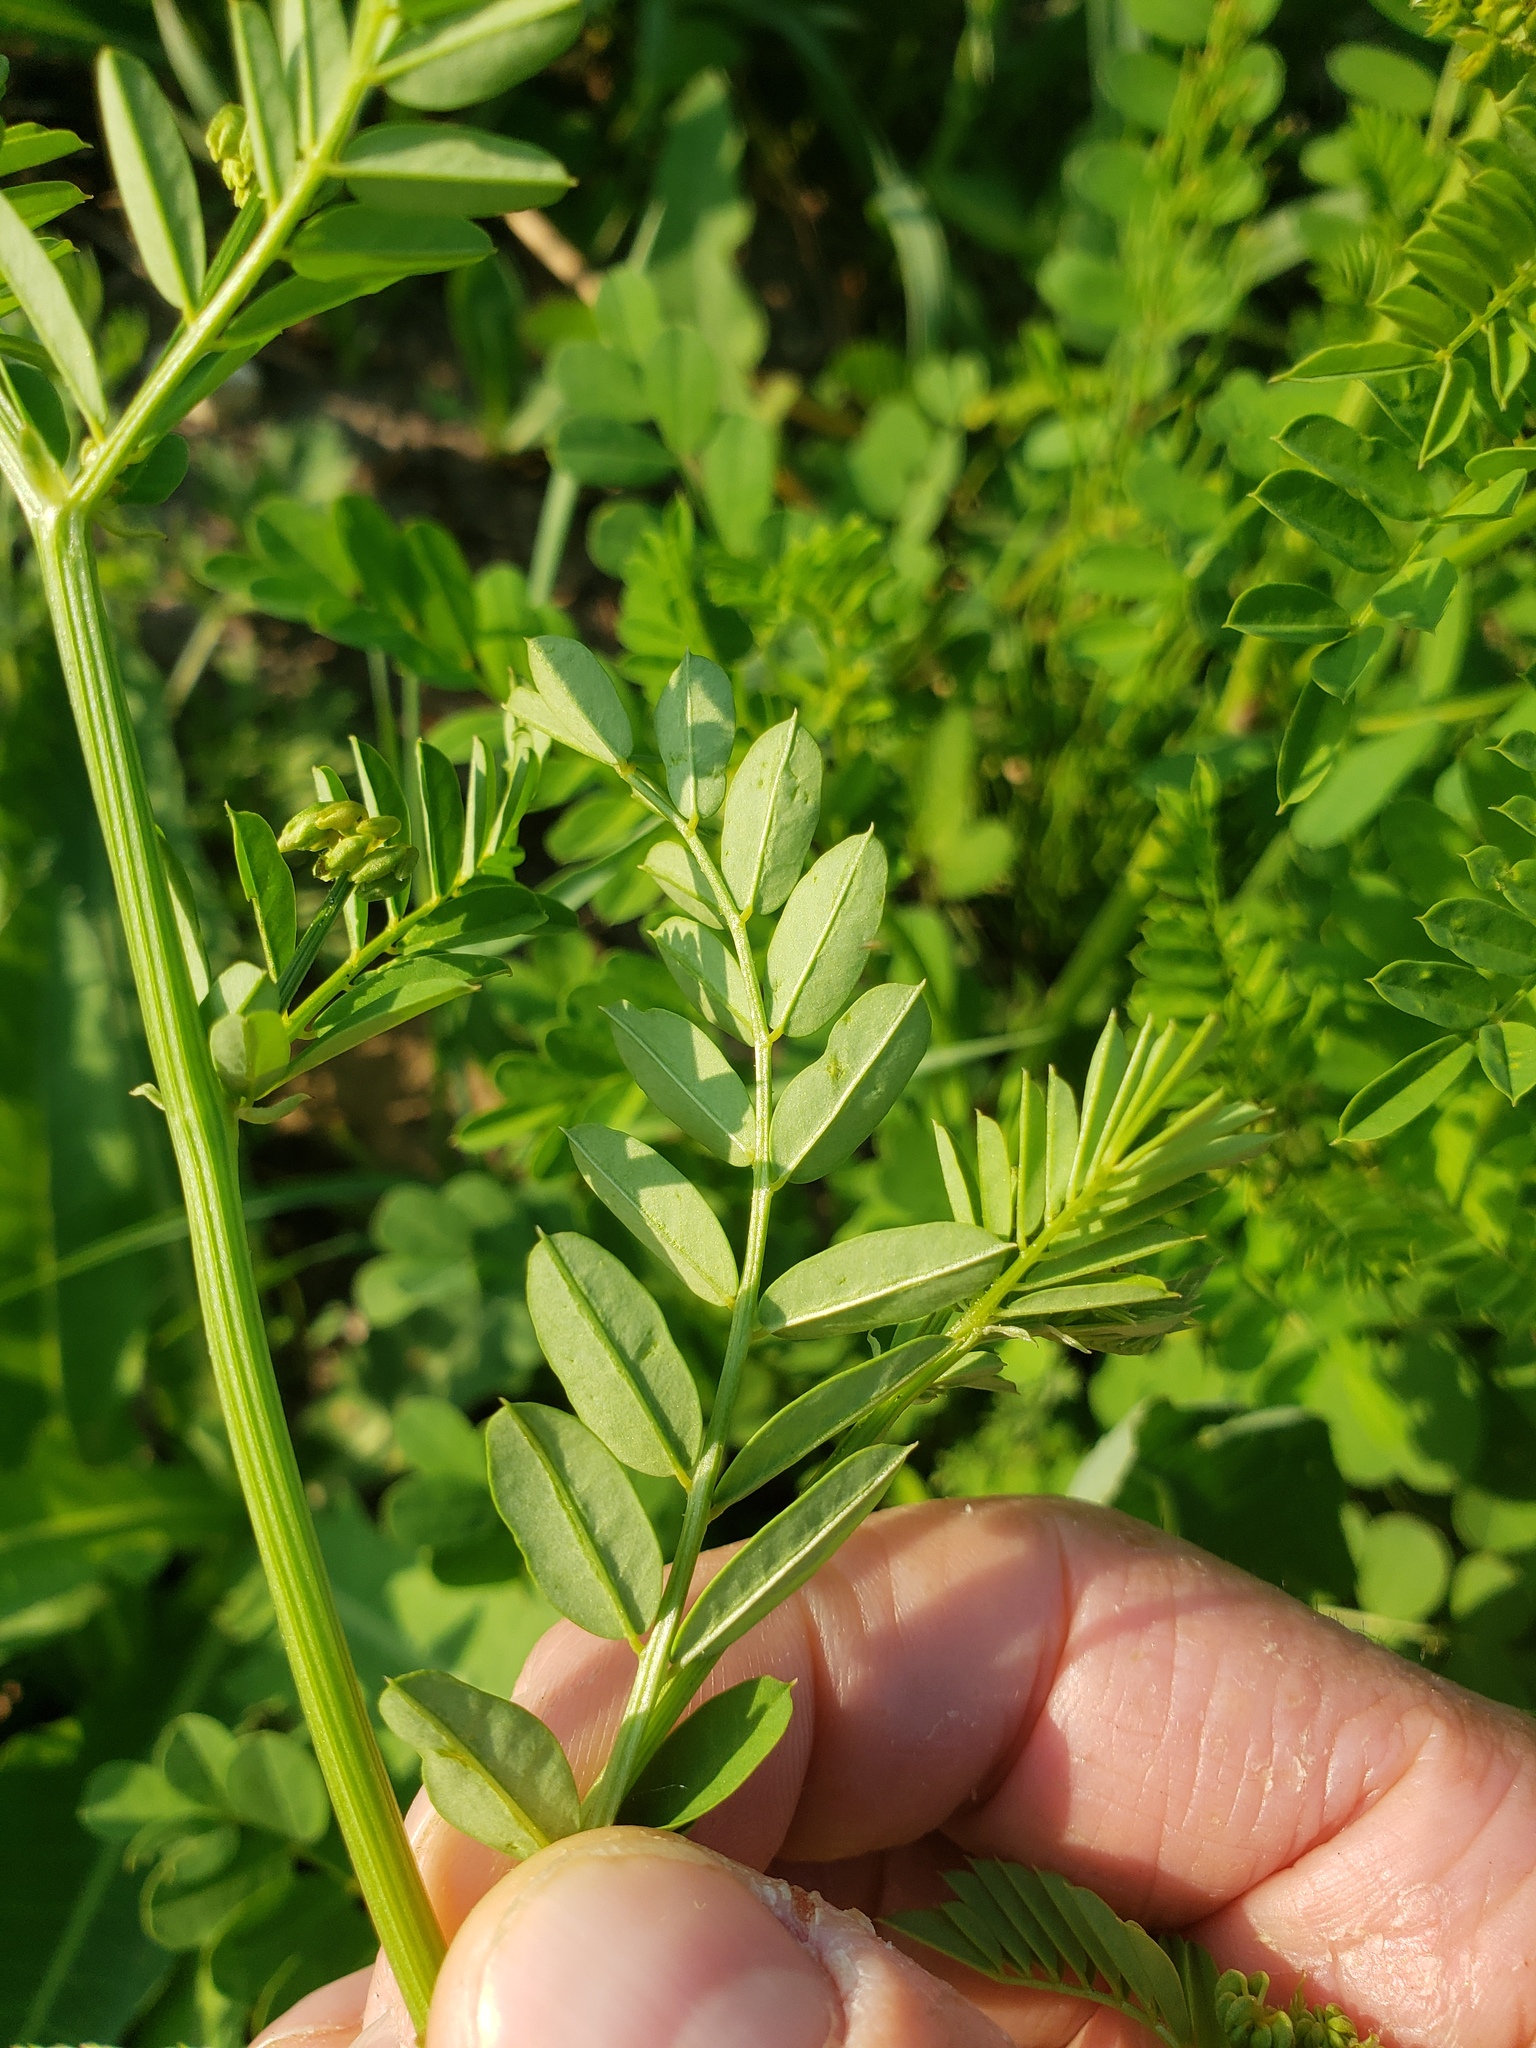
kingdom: Plantae
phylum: Tracheophyta
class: Magnoliopsida
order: Fabales
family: Fabaceae
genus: Coronilla
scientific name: Coronilla varia
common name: Crownvetch
